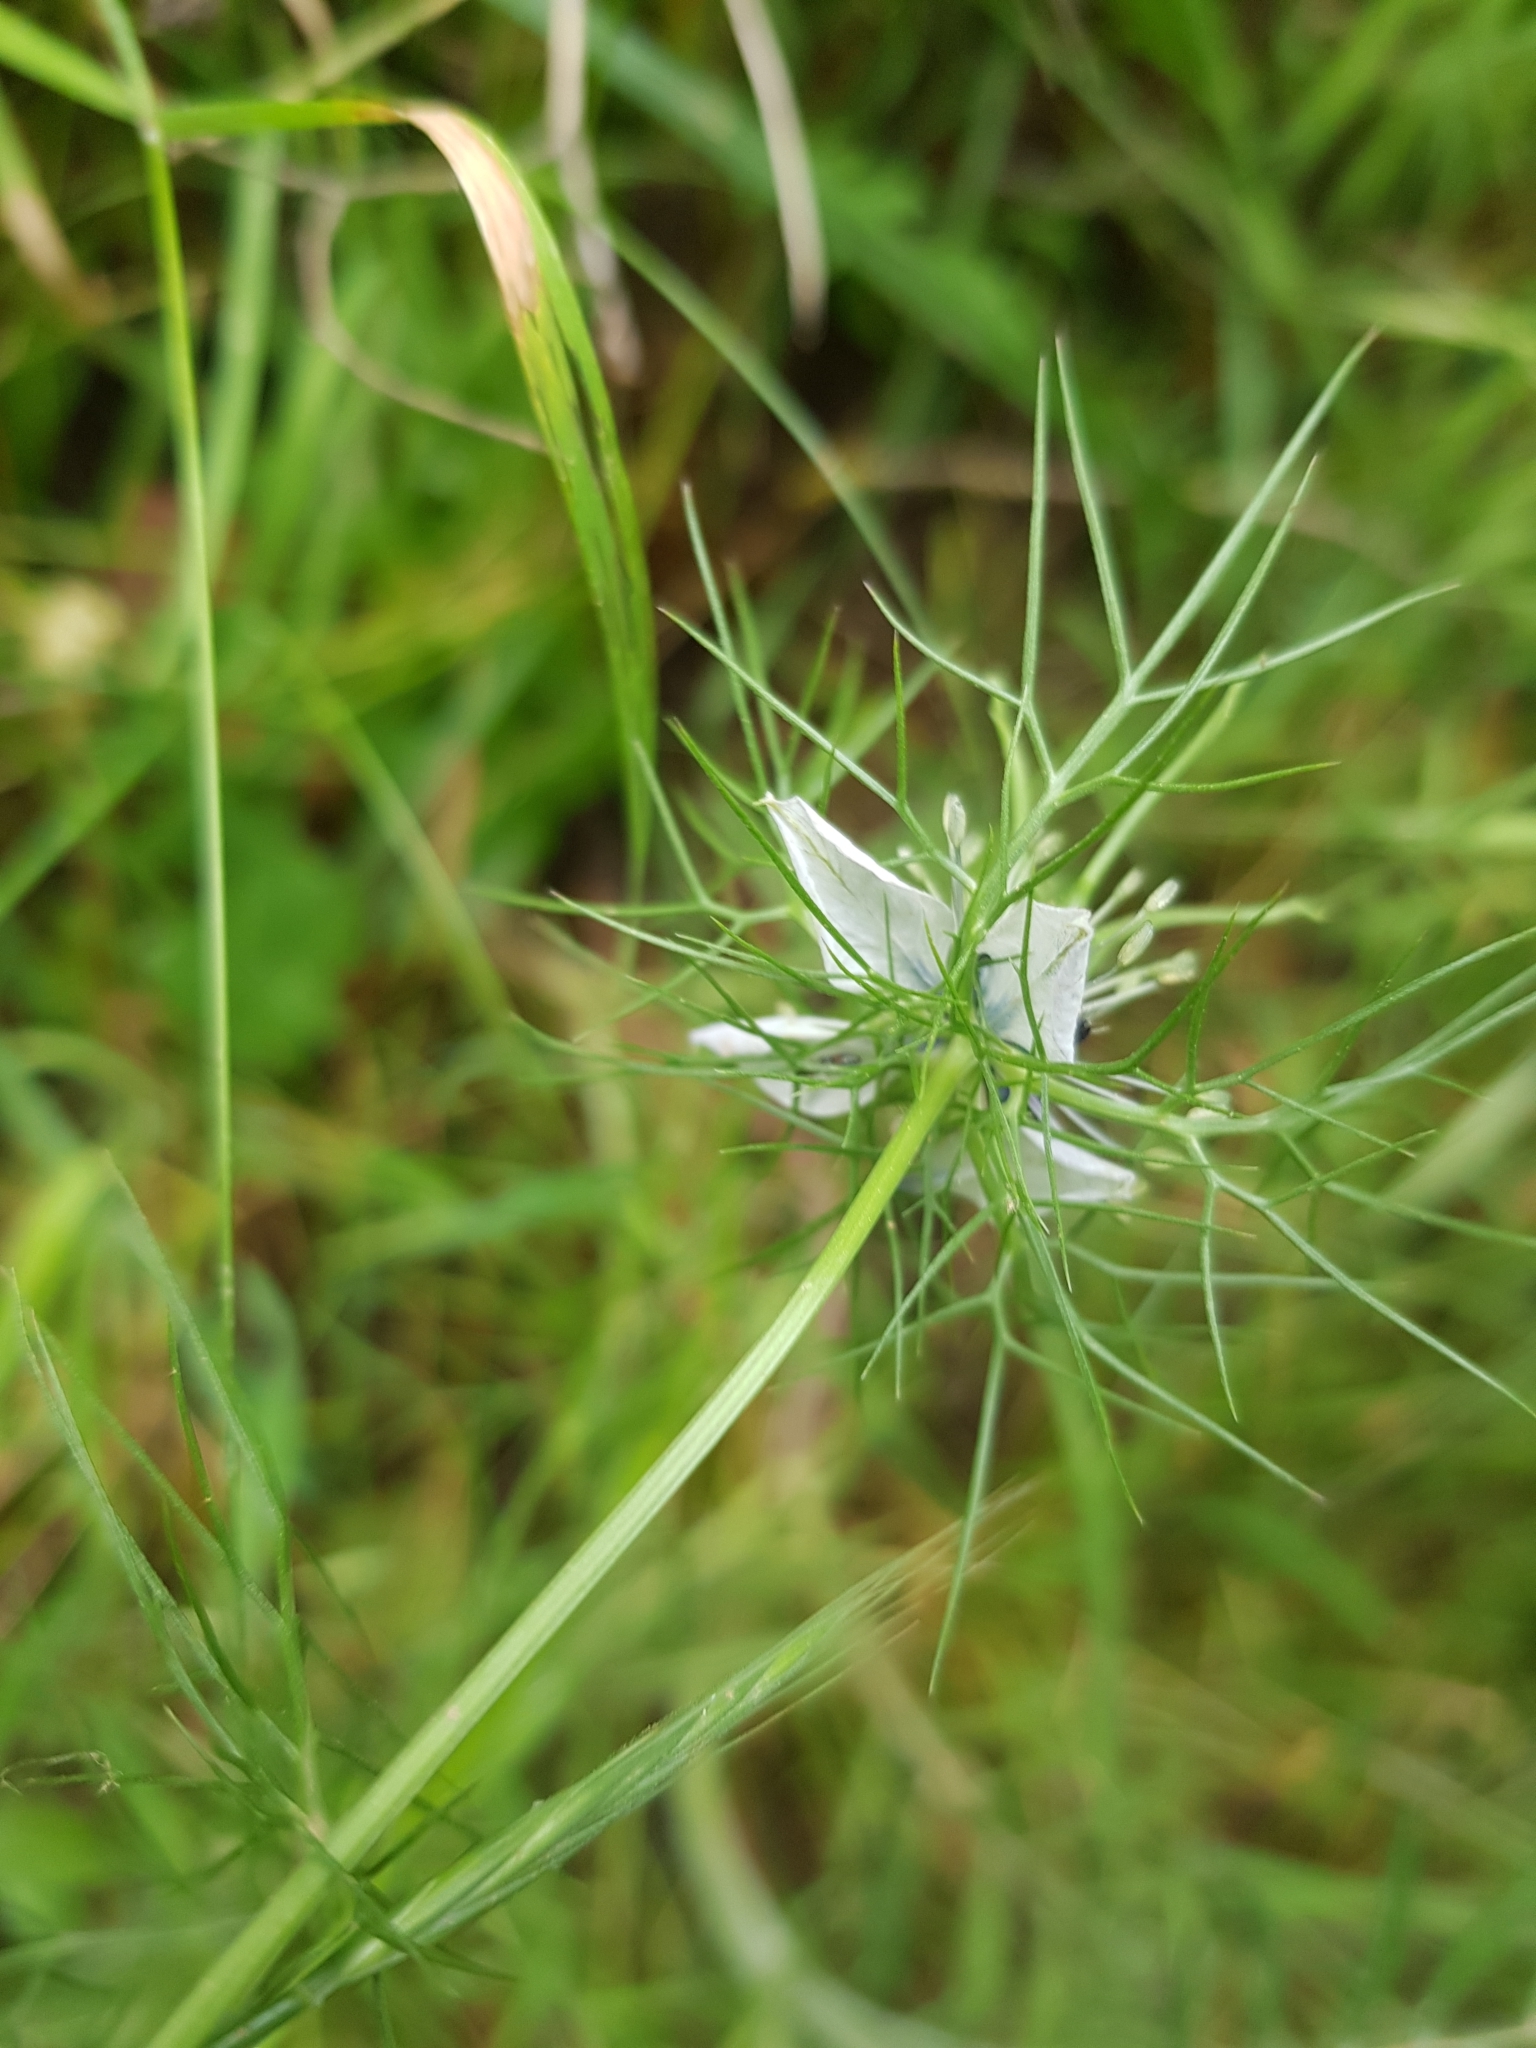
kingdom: Plantae
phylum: Tracheophyta
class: Magnoliopsida
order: Ranunculales
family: Ranunculaceae
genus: Nigella
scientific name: Nigella damascena
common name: Love-in-a-mist
